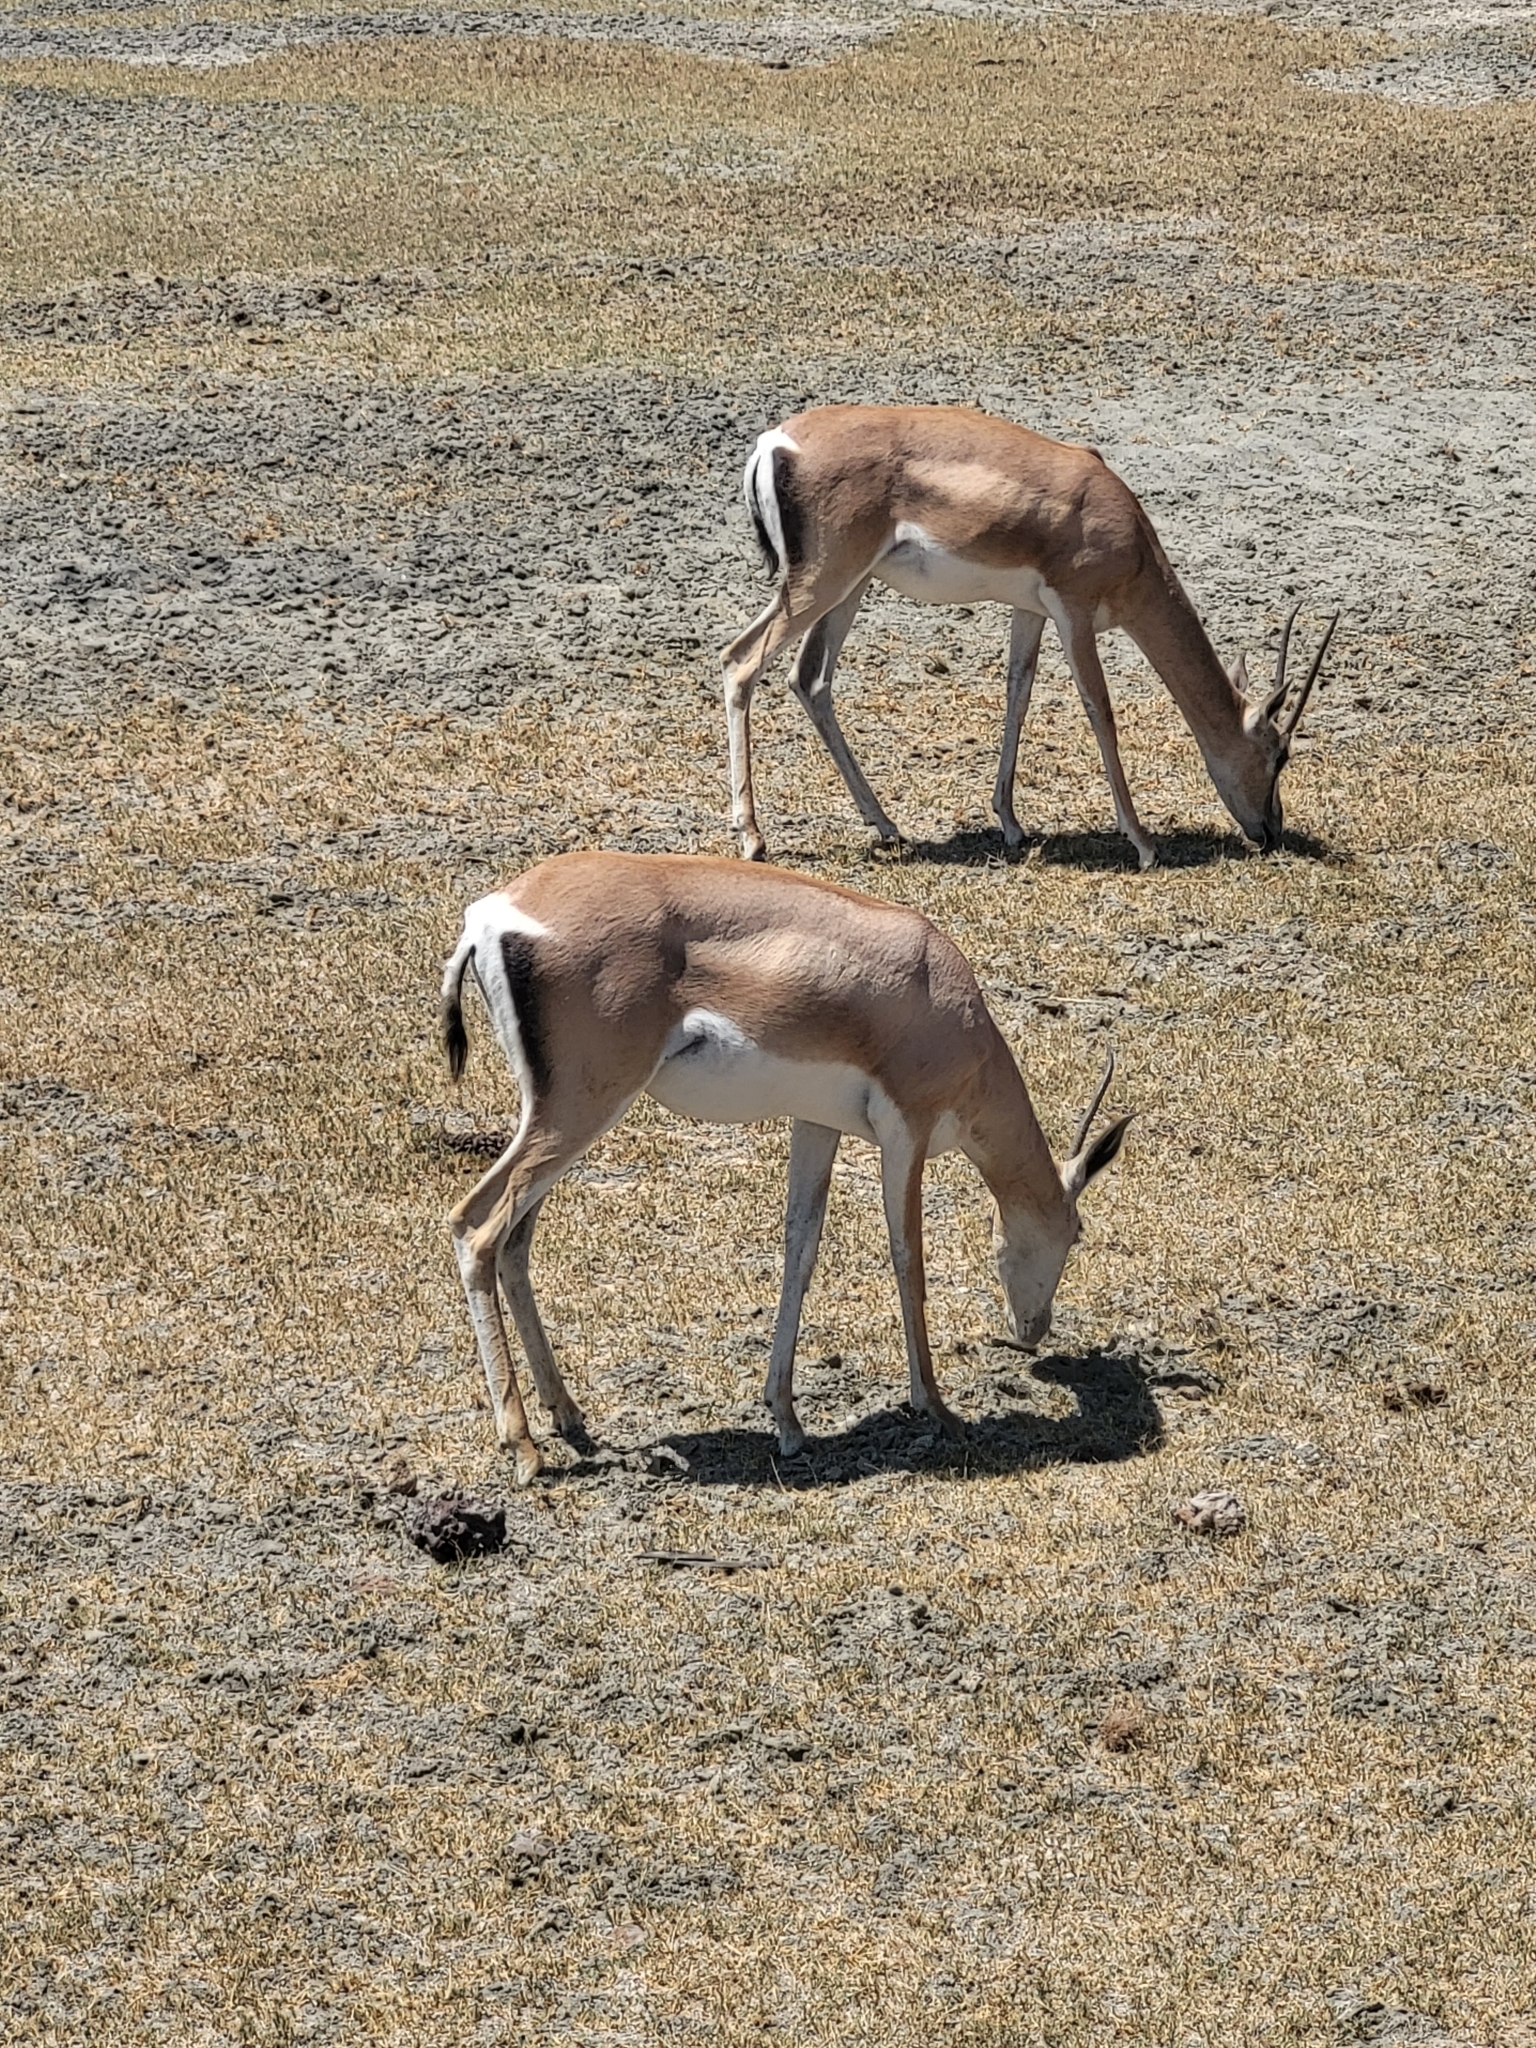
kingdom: Animalia
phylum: Chordata
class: Mammalia
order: Artiodactyla
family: Bovidae
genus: Nanger
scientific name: Nanger granti
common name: Grant's gazelle
